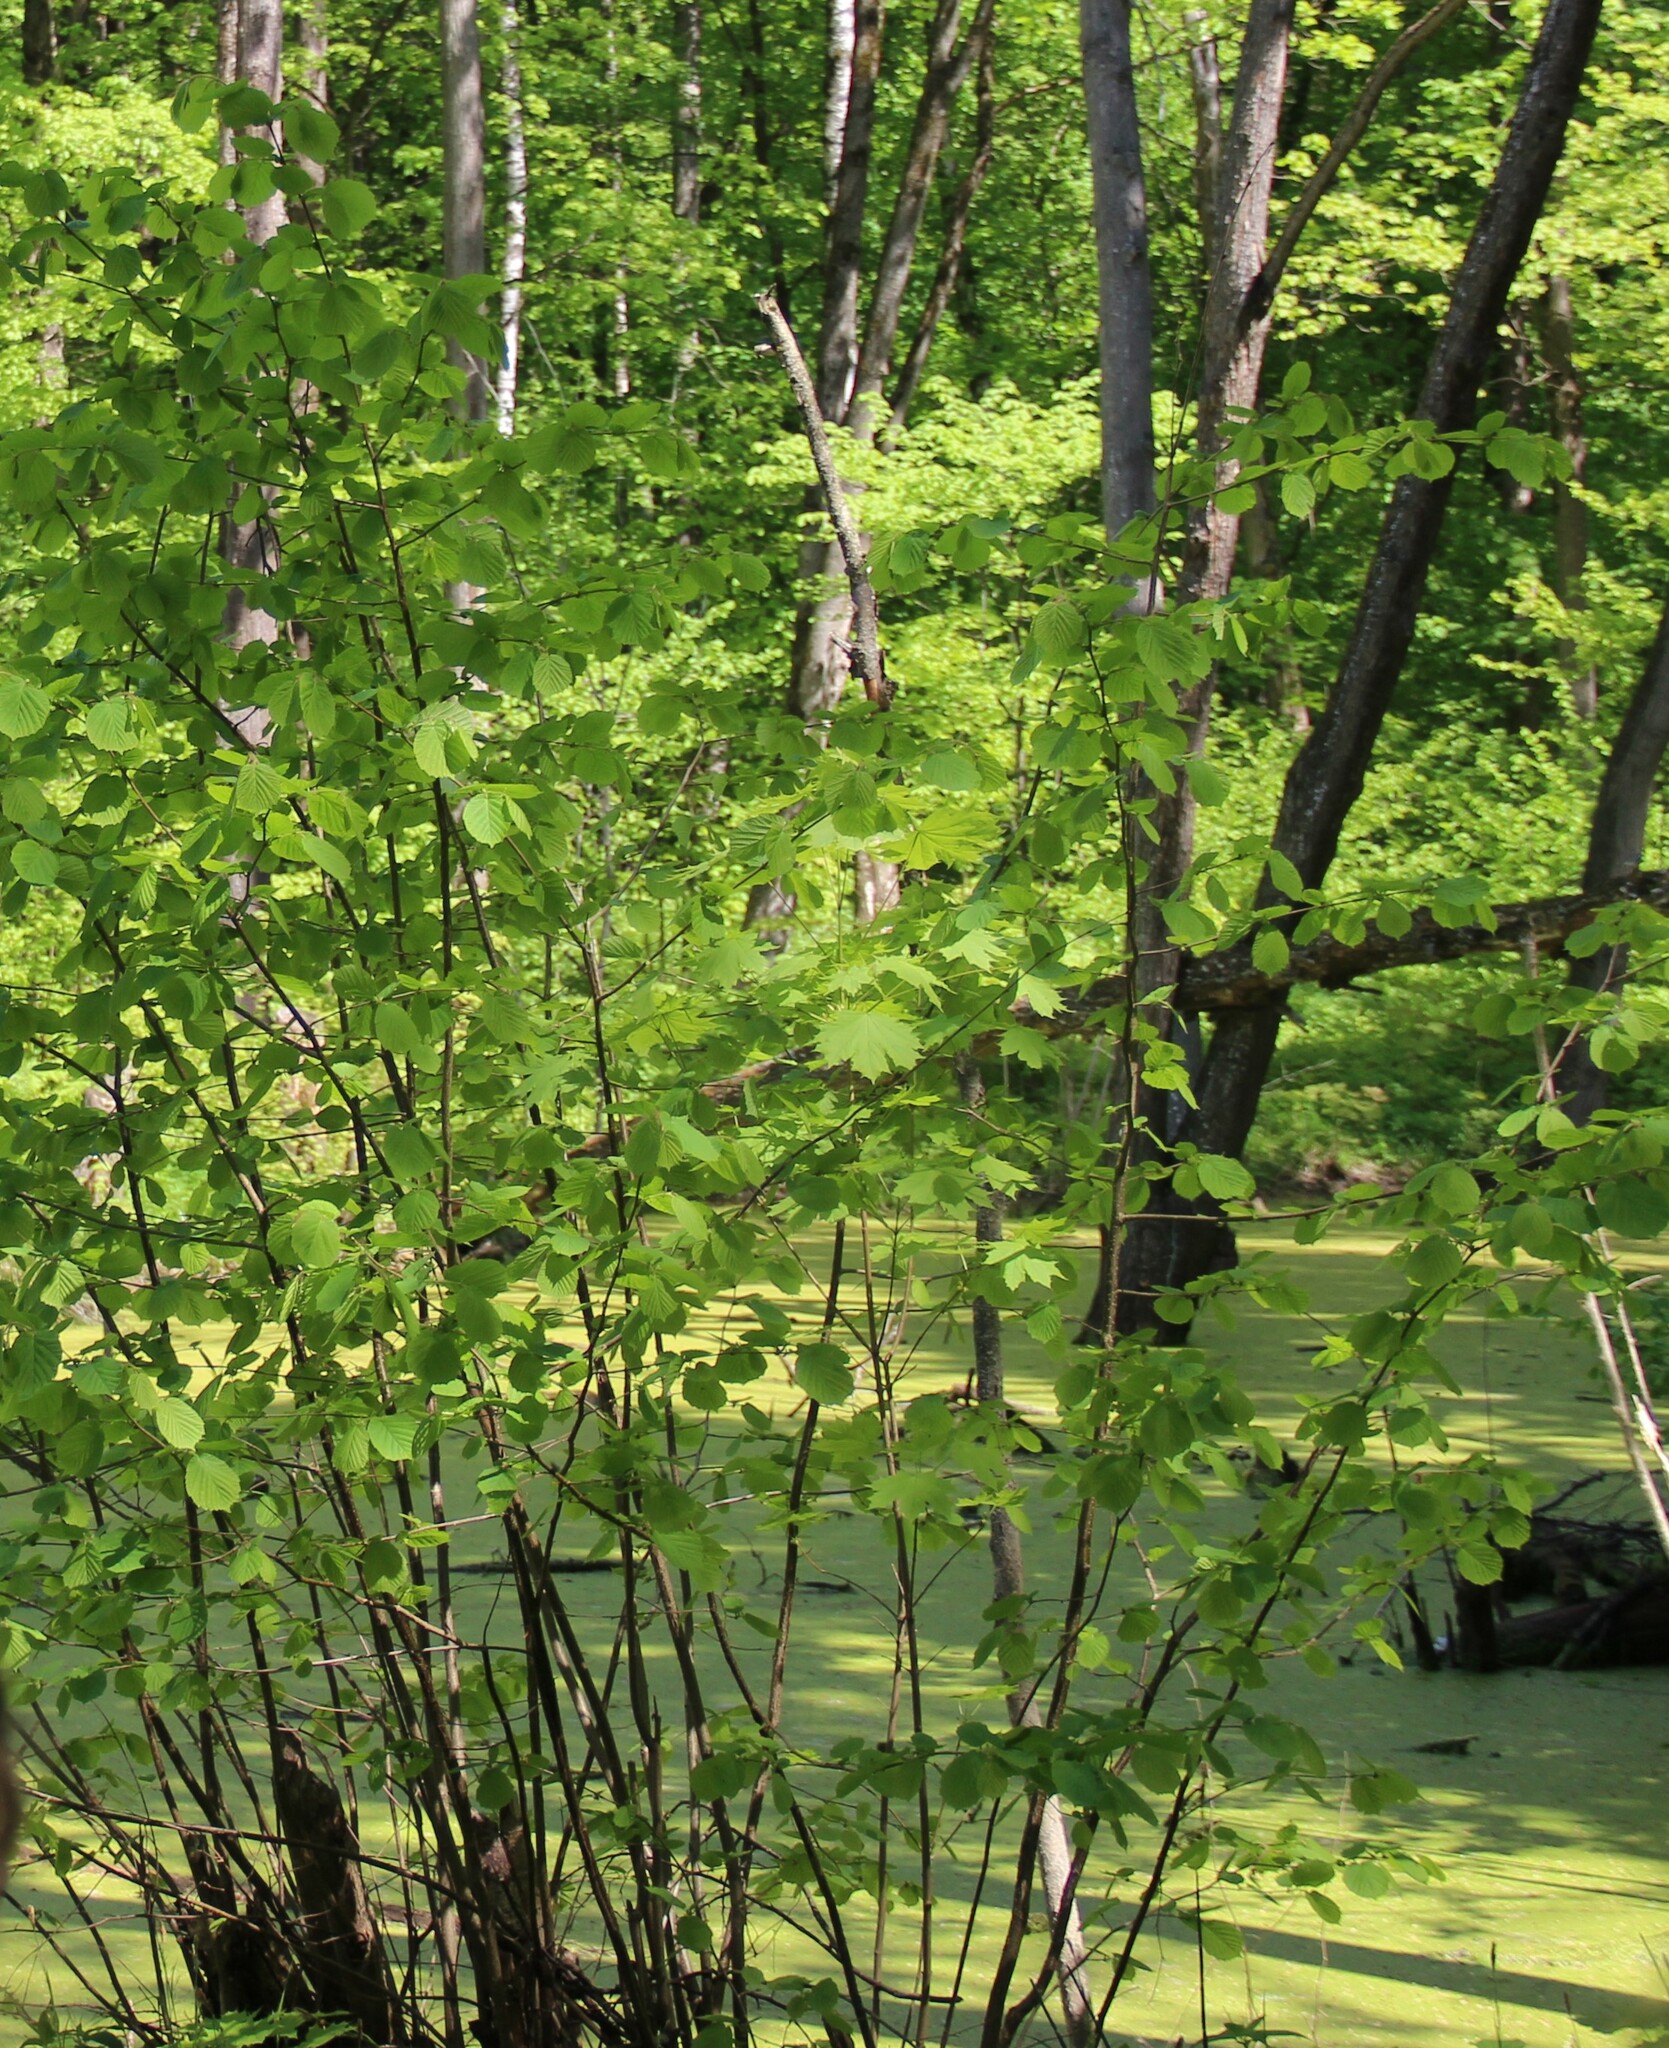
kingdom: Plantae
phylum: Tracheophyta
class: Magnoliopsida
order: Fagales
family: Betulaceae
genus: Corylus
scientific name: Corylus avellana
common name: European hazel
